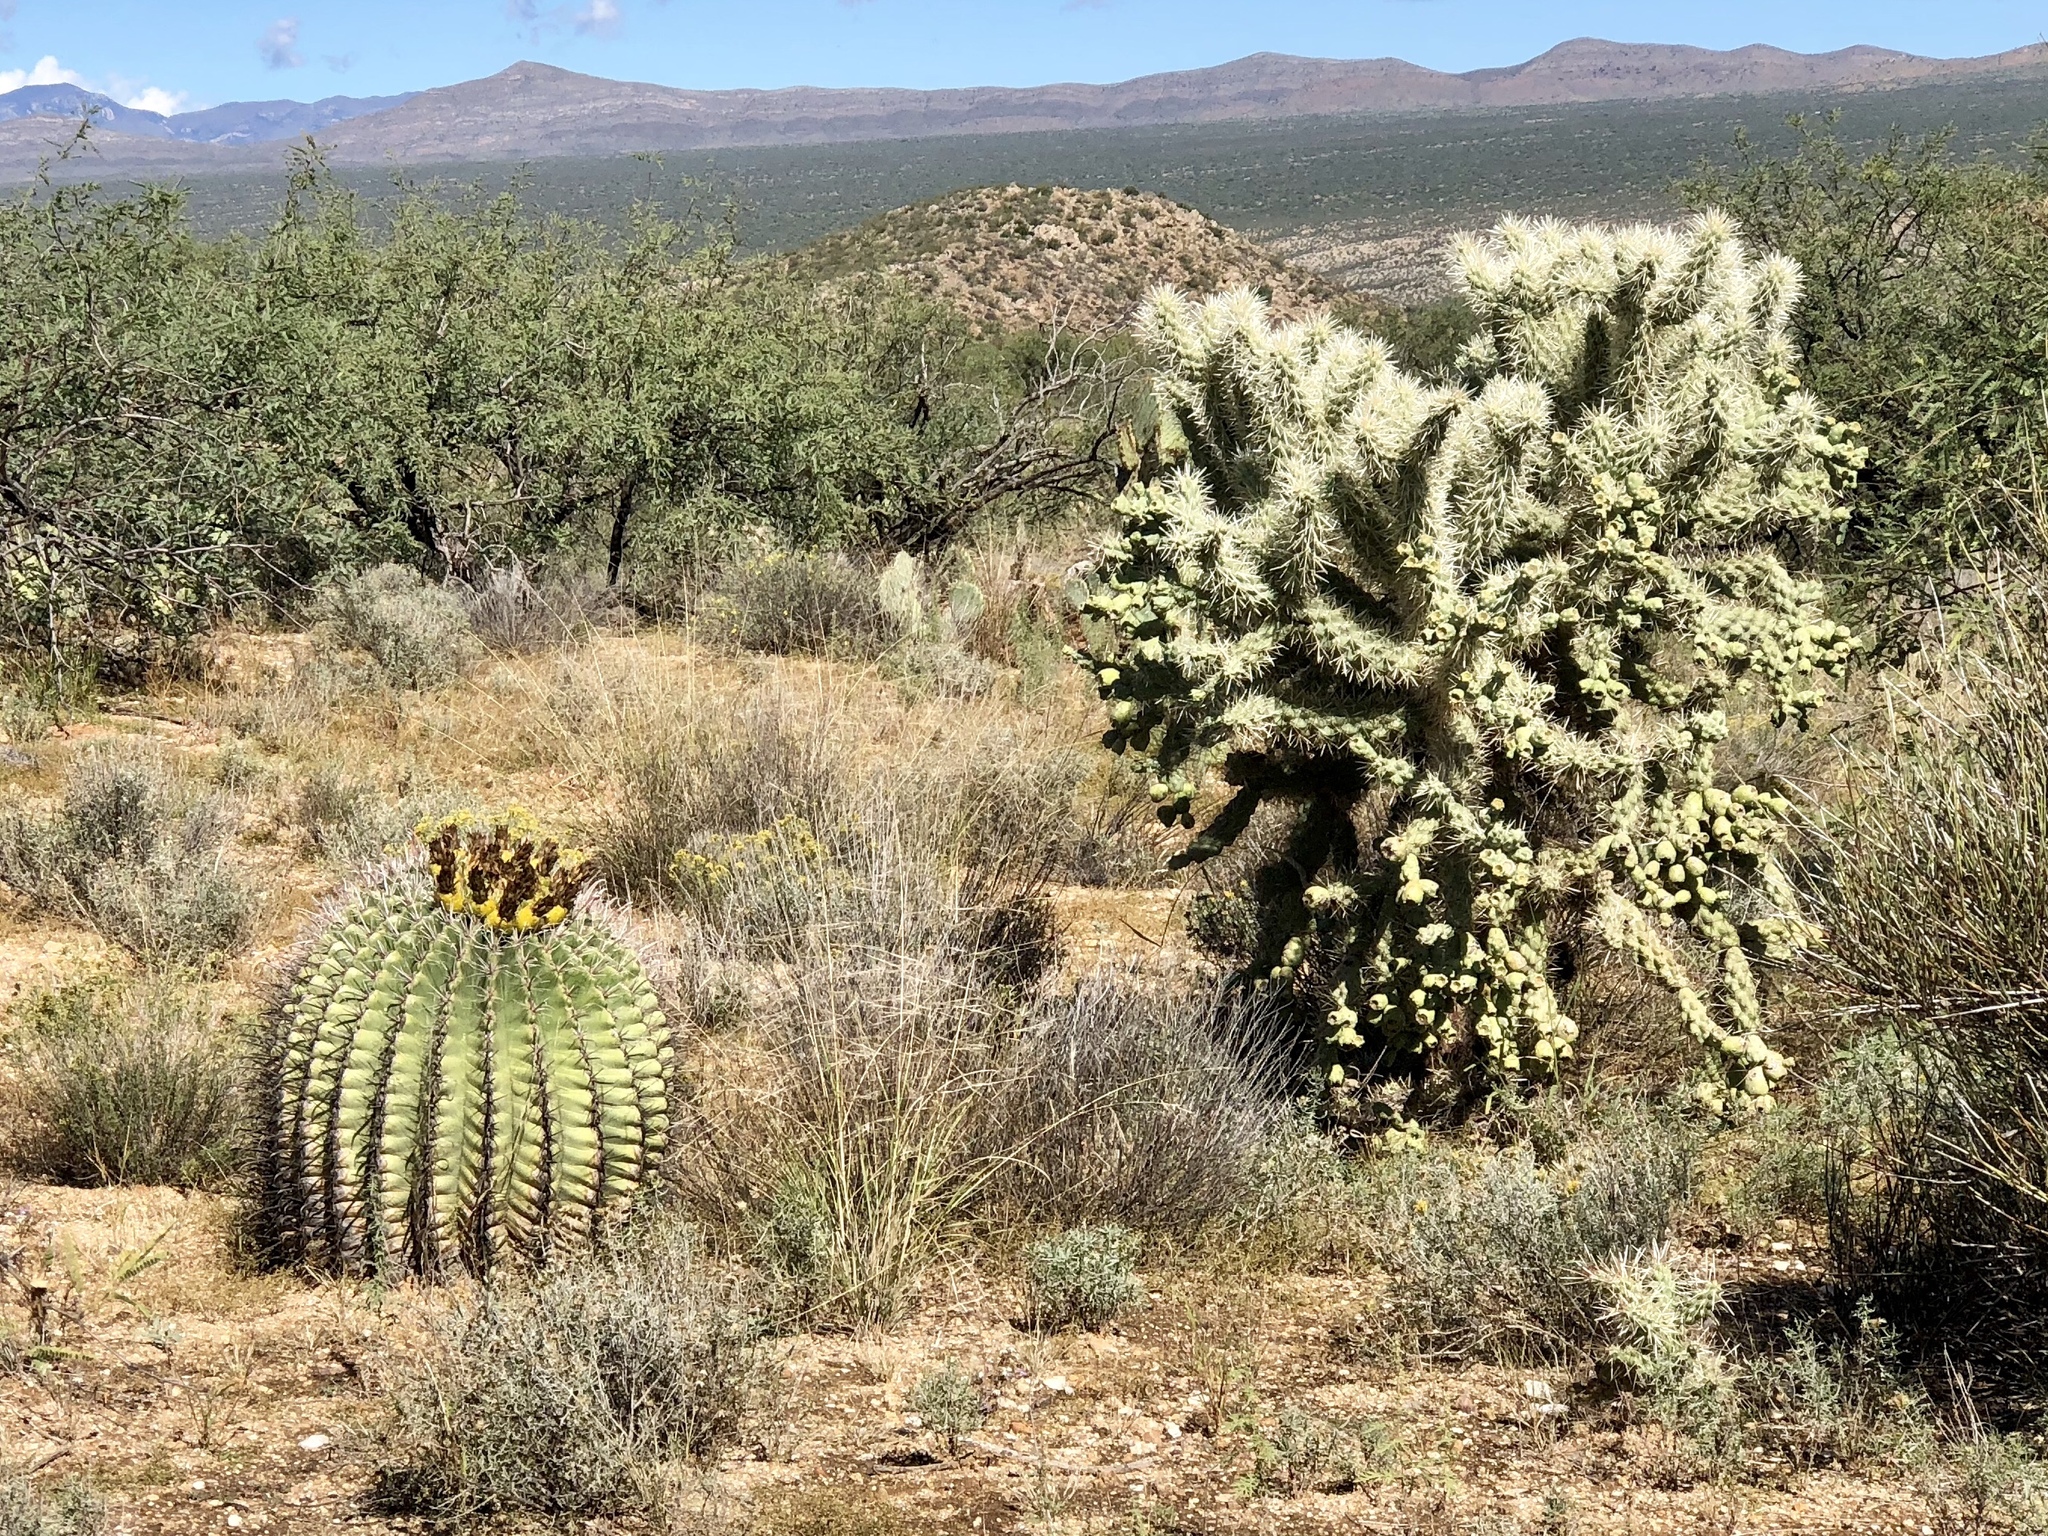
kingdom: Plantae
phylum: Tracheophyta
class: Magnoliopsida
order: Caryophyllales
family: Cactaceae
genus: Cylindropuntia
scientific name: Cylindropuntia fulgida
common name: Jumping cholla
